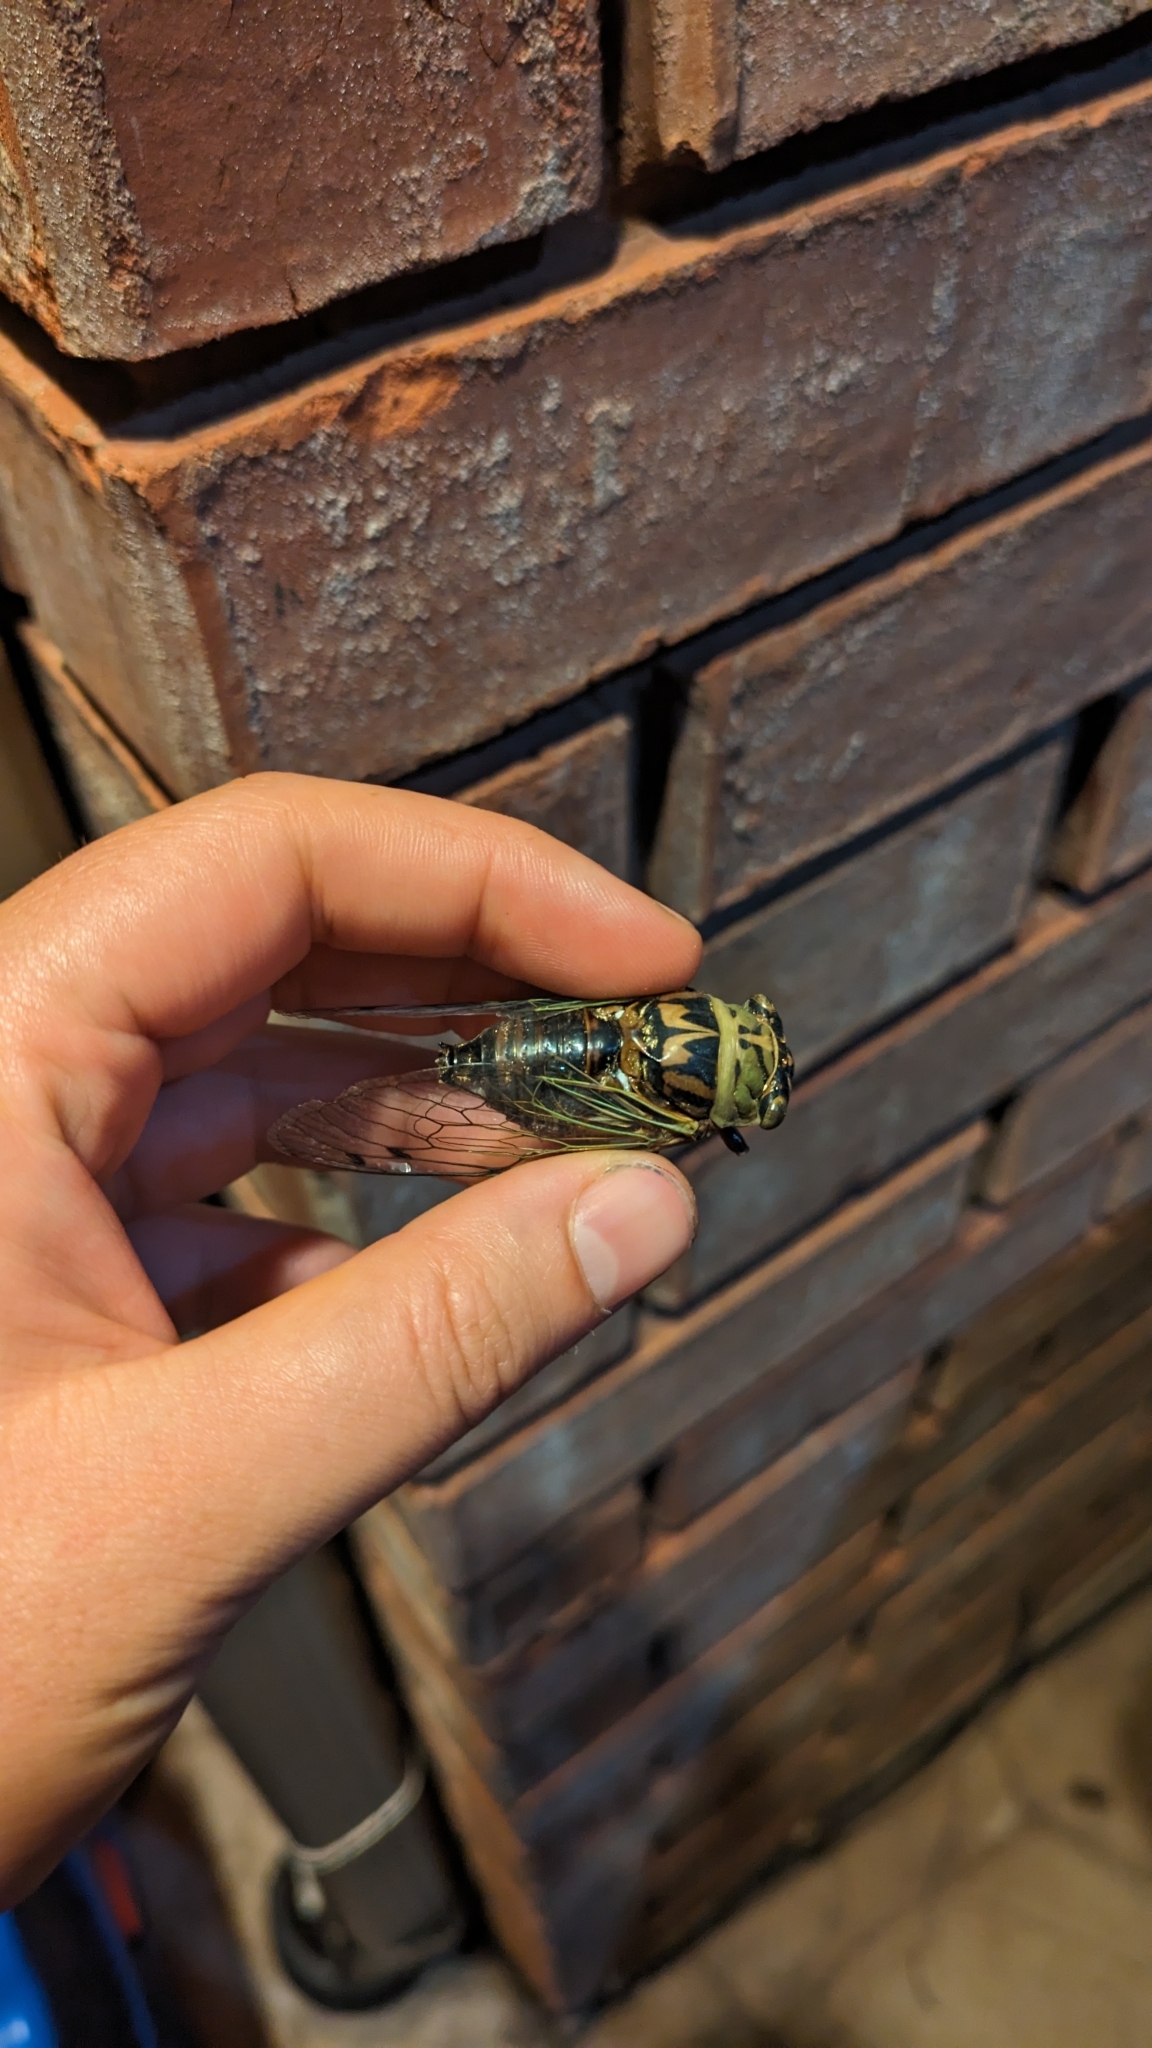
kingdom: Animalia
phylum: Arthropoda
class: Insecta
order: Hemiptera
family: Cicadidae
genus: Megatibicen
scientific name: Megatibicen resh
